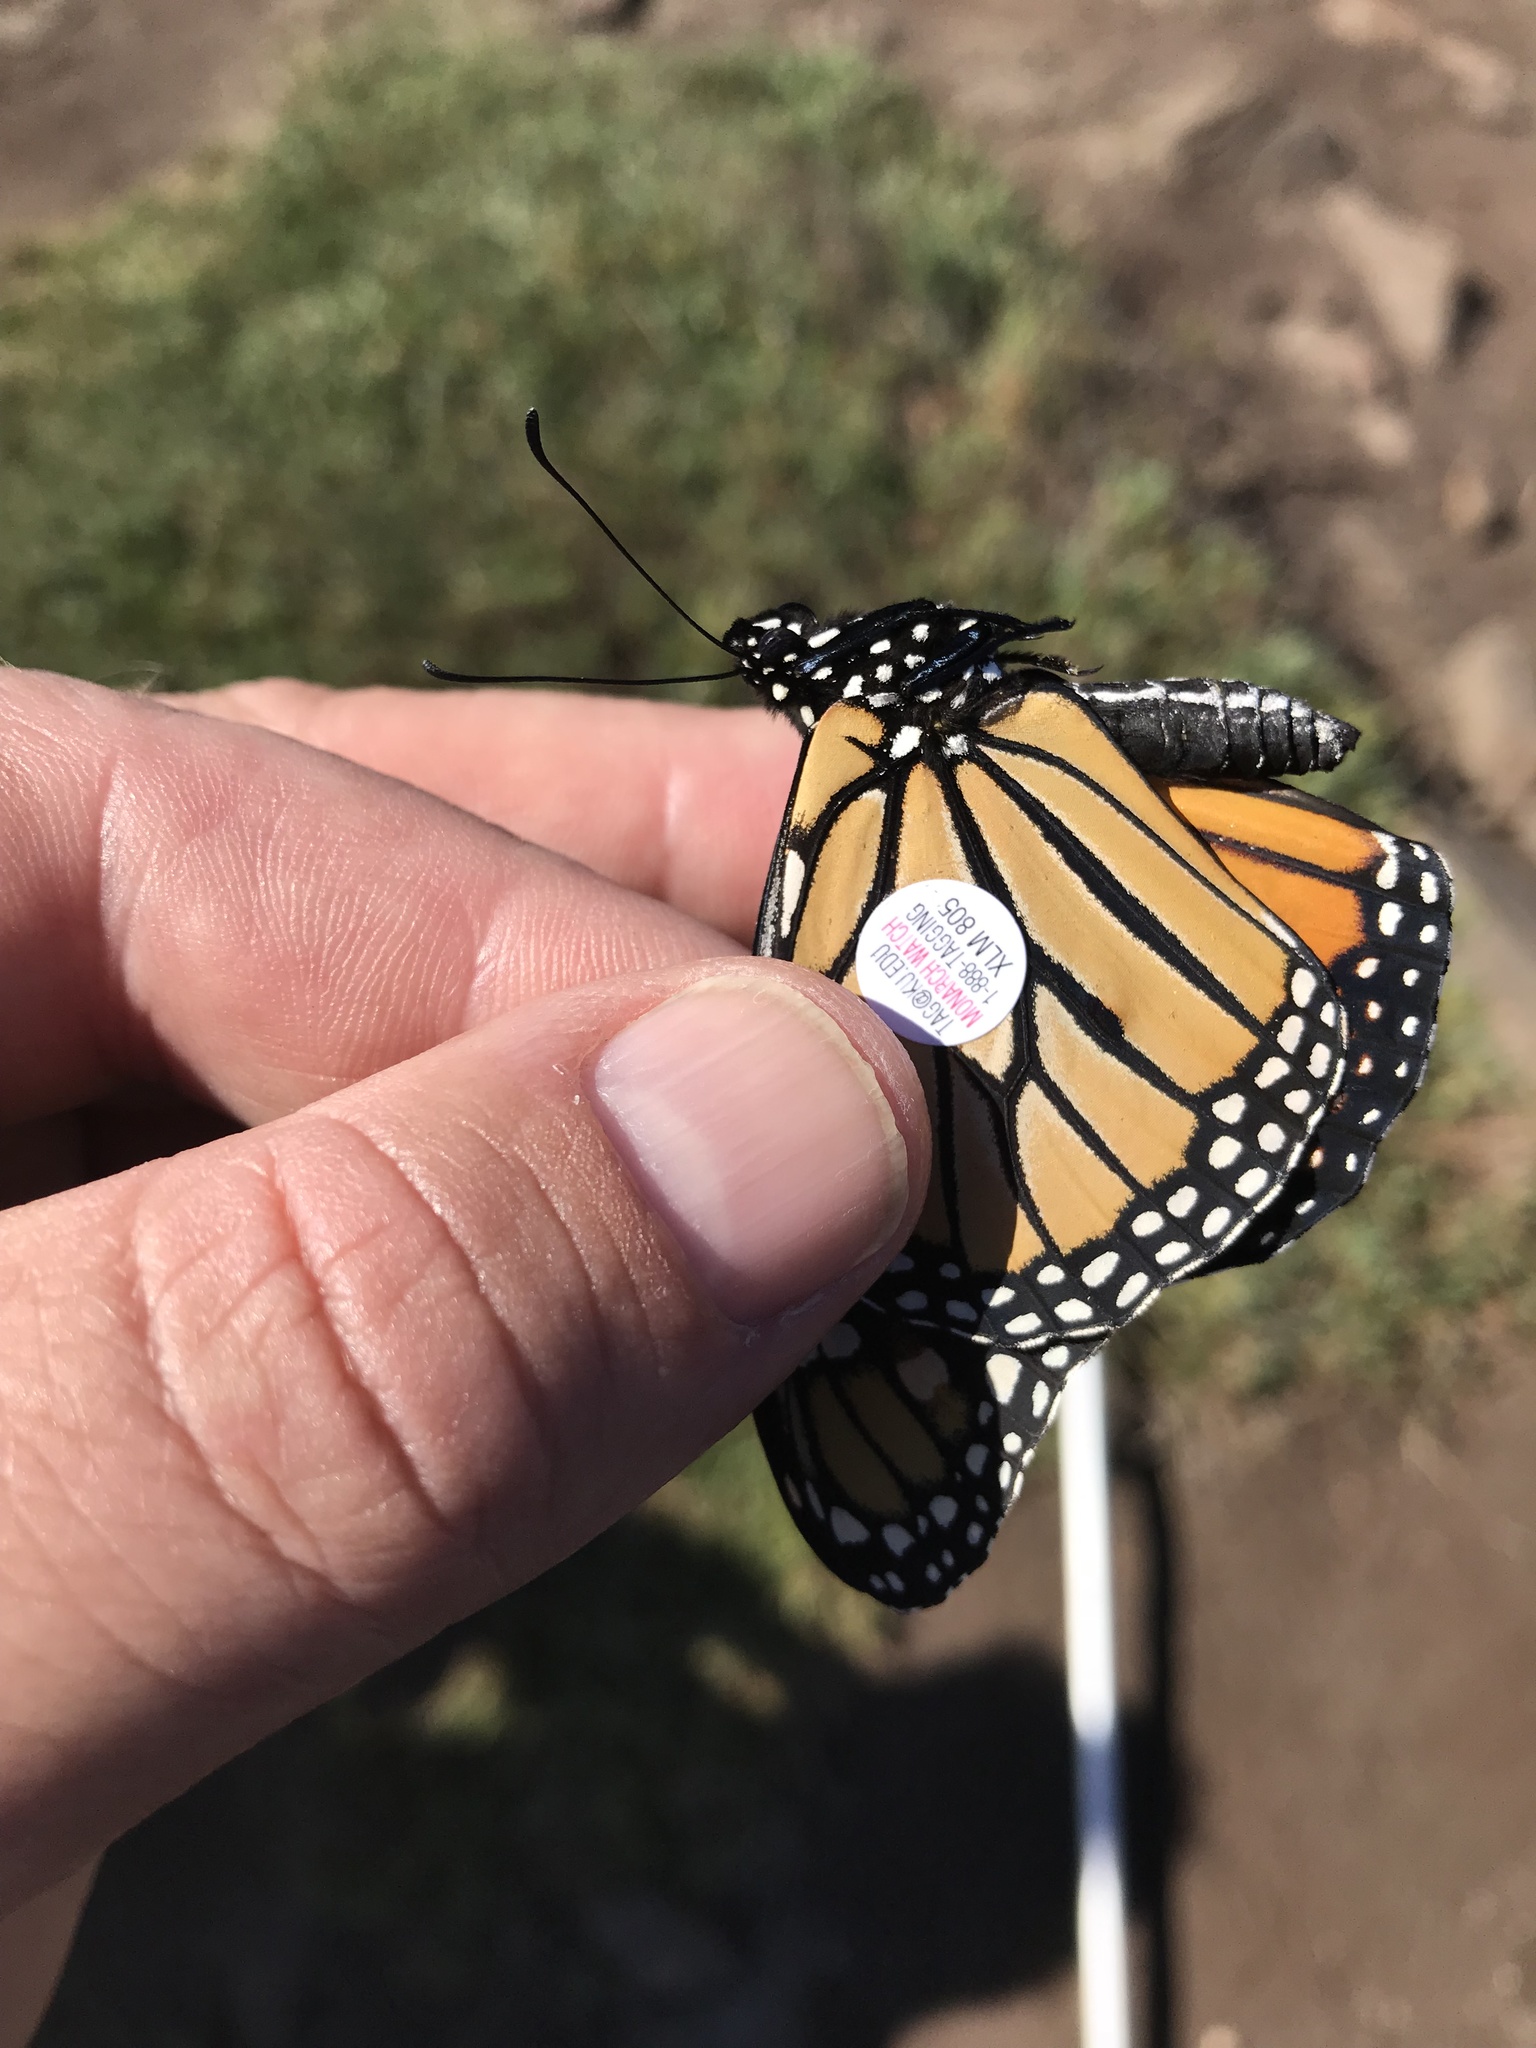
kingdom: Animalia
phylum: Arthropoda
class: Insecta
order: Lepidoptera
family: Nymphalidae
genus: Danaus
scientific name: Danaus plexippus
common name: Monarch
